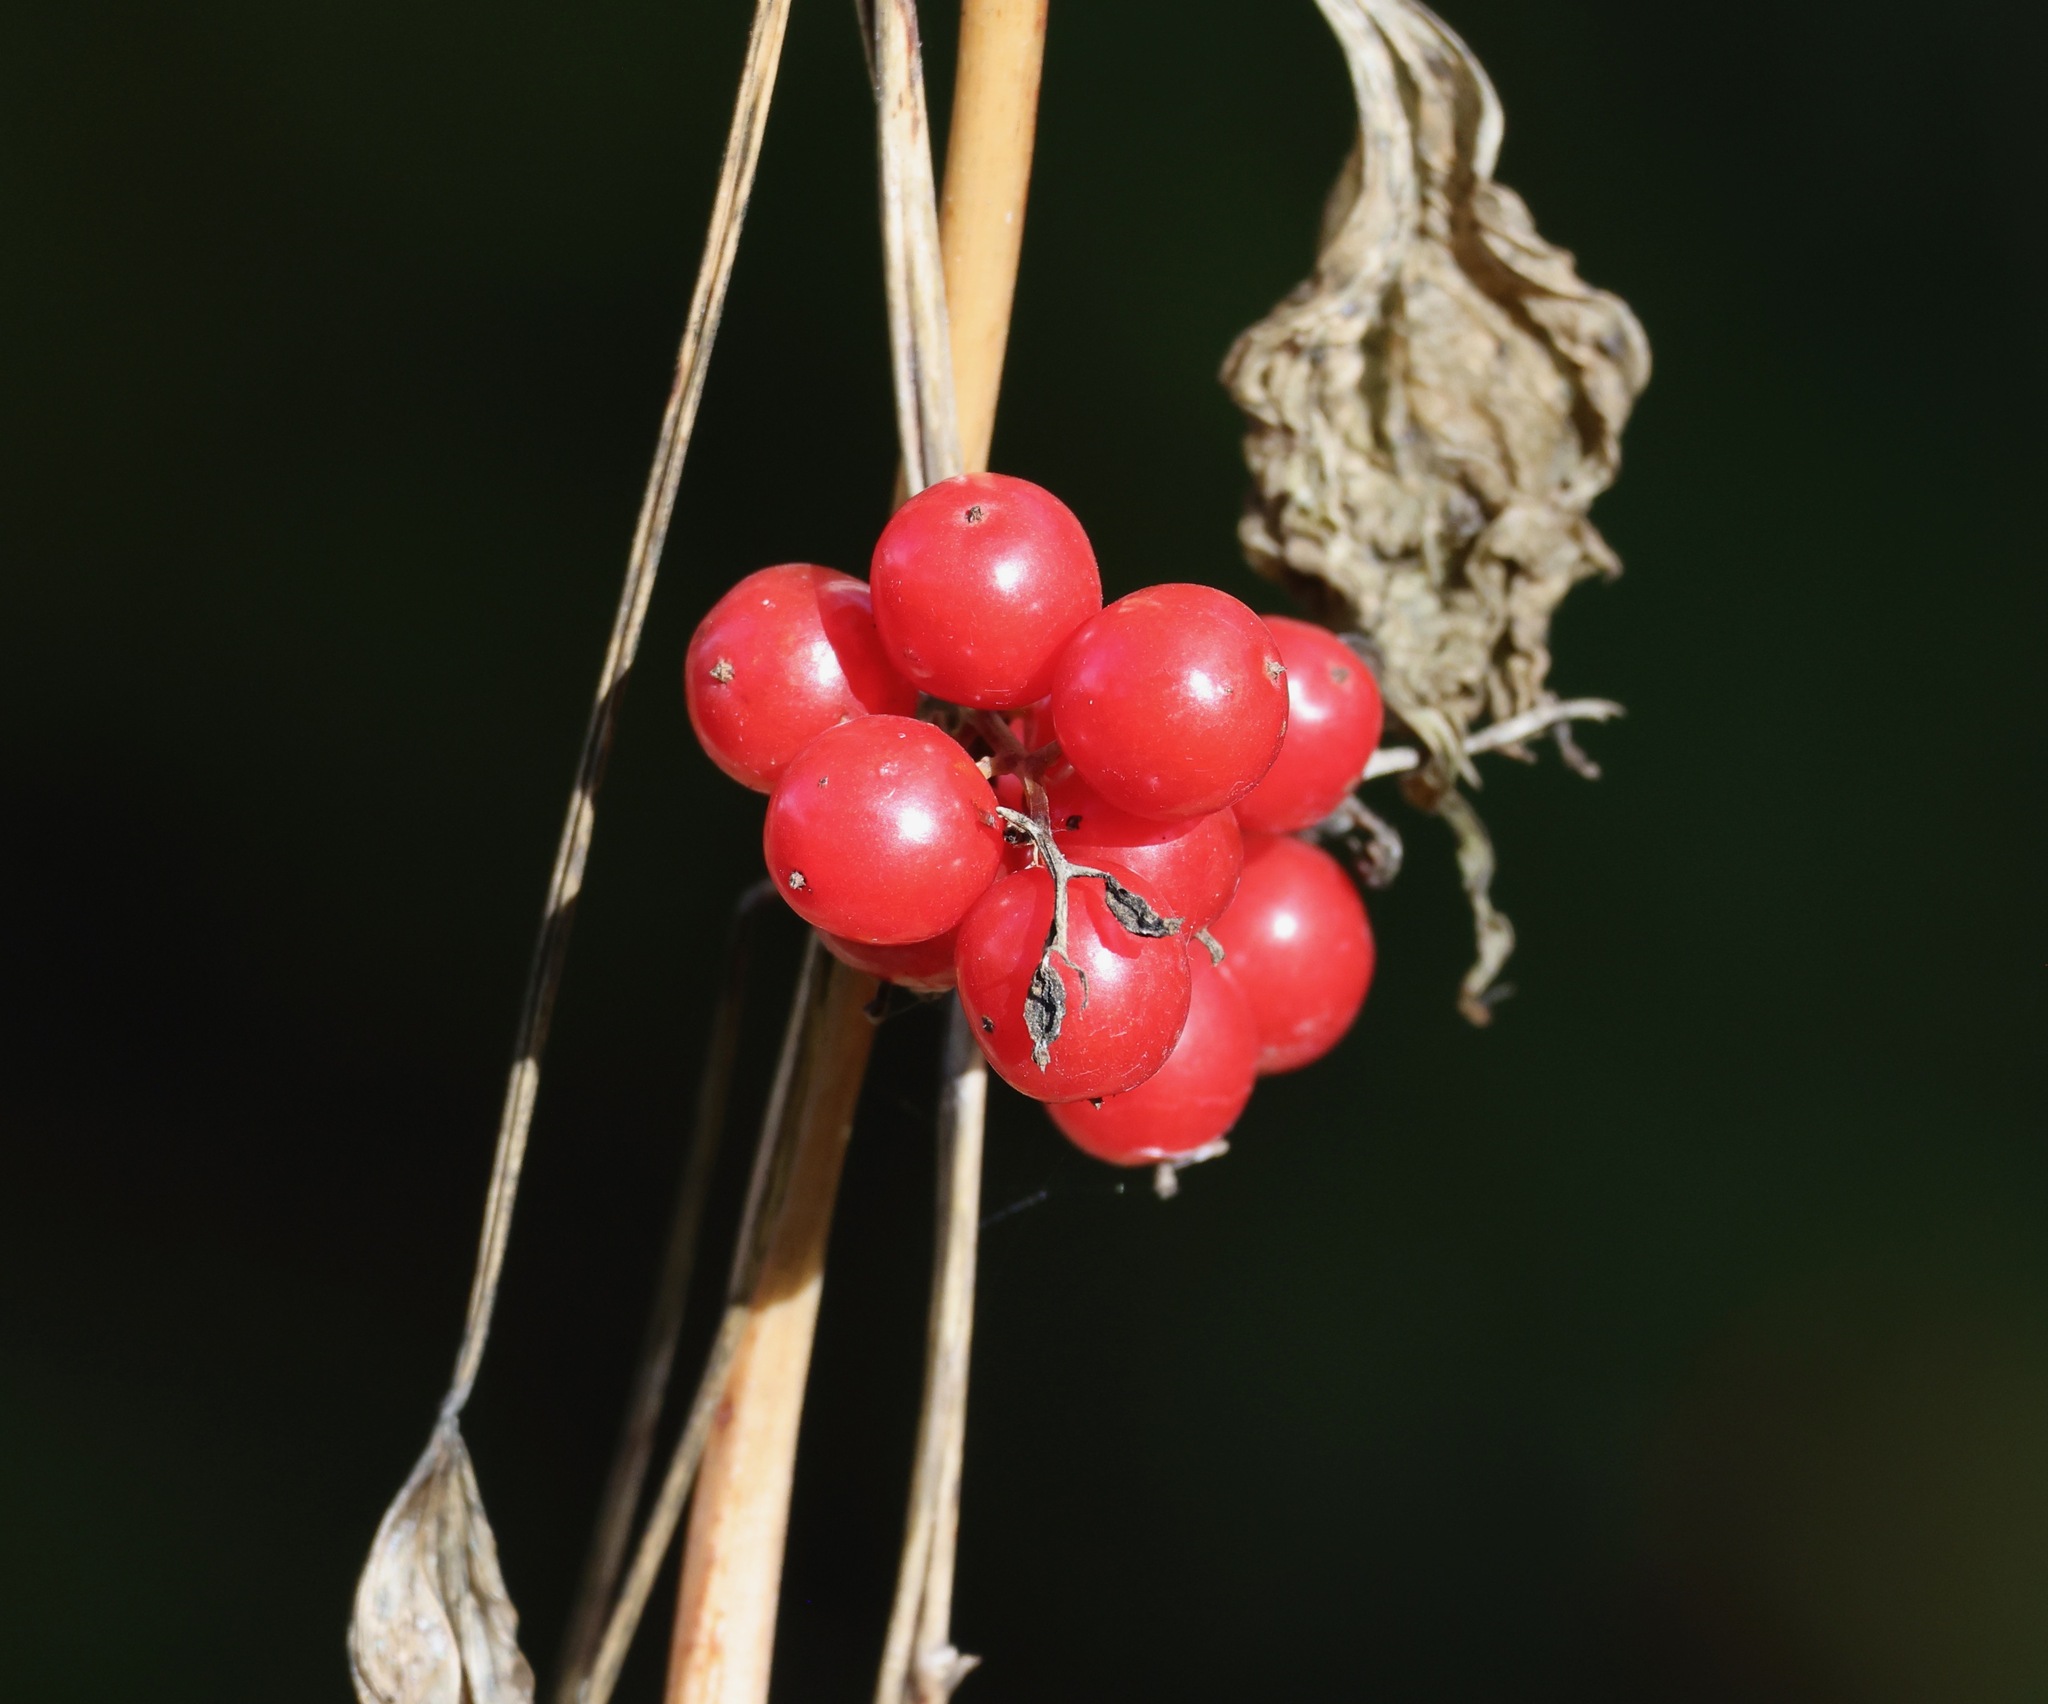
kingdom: Plantae
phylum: Tracheophyta
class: Liliopsida
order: Dioscoreales
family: Dioscoreaceae
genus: Dioscorea
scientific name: Dioscorea communis
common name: Black-bindweed
